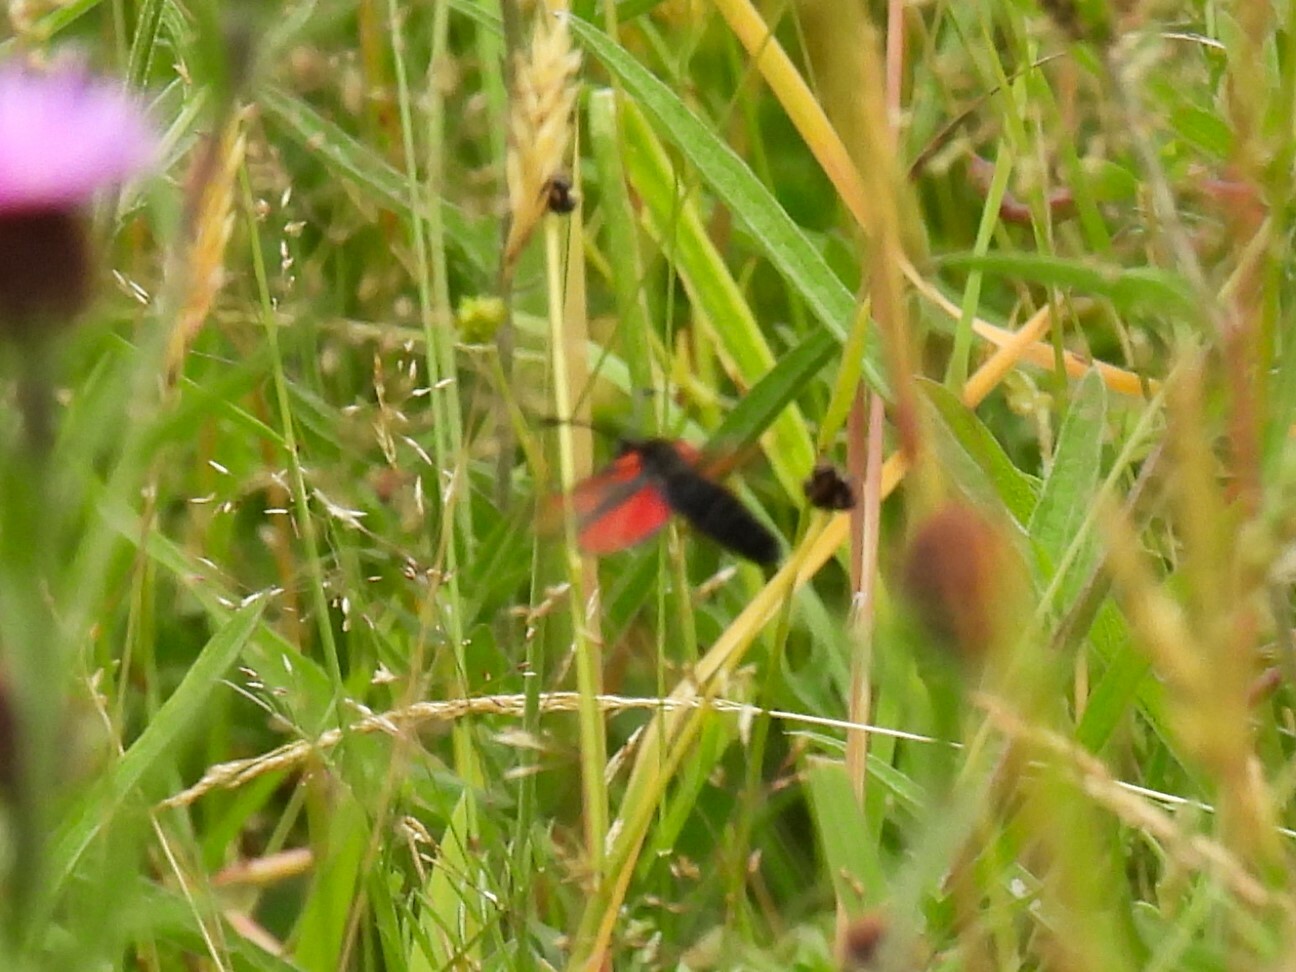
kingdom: Animalia
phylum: Arthropoda
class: Insecta
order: Lepidoptera
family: Zygaenidae
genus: Zygaena
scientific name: Zygaena
